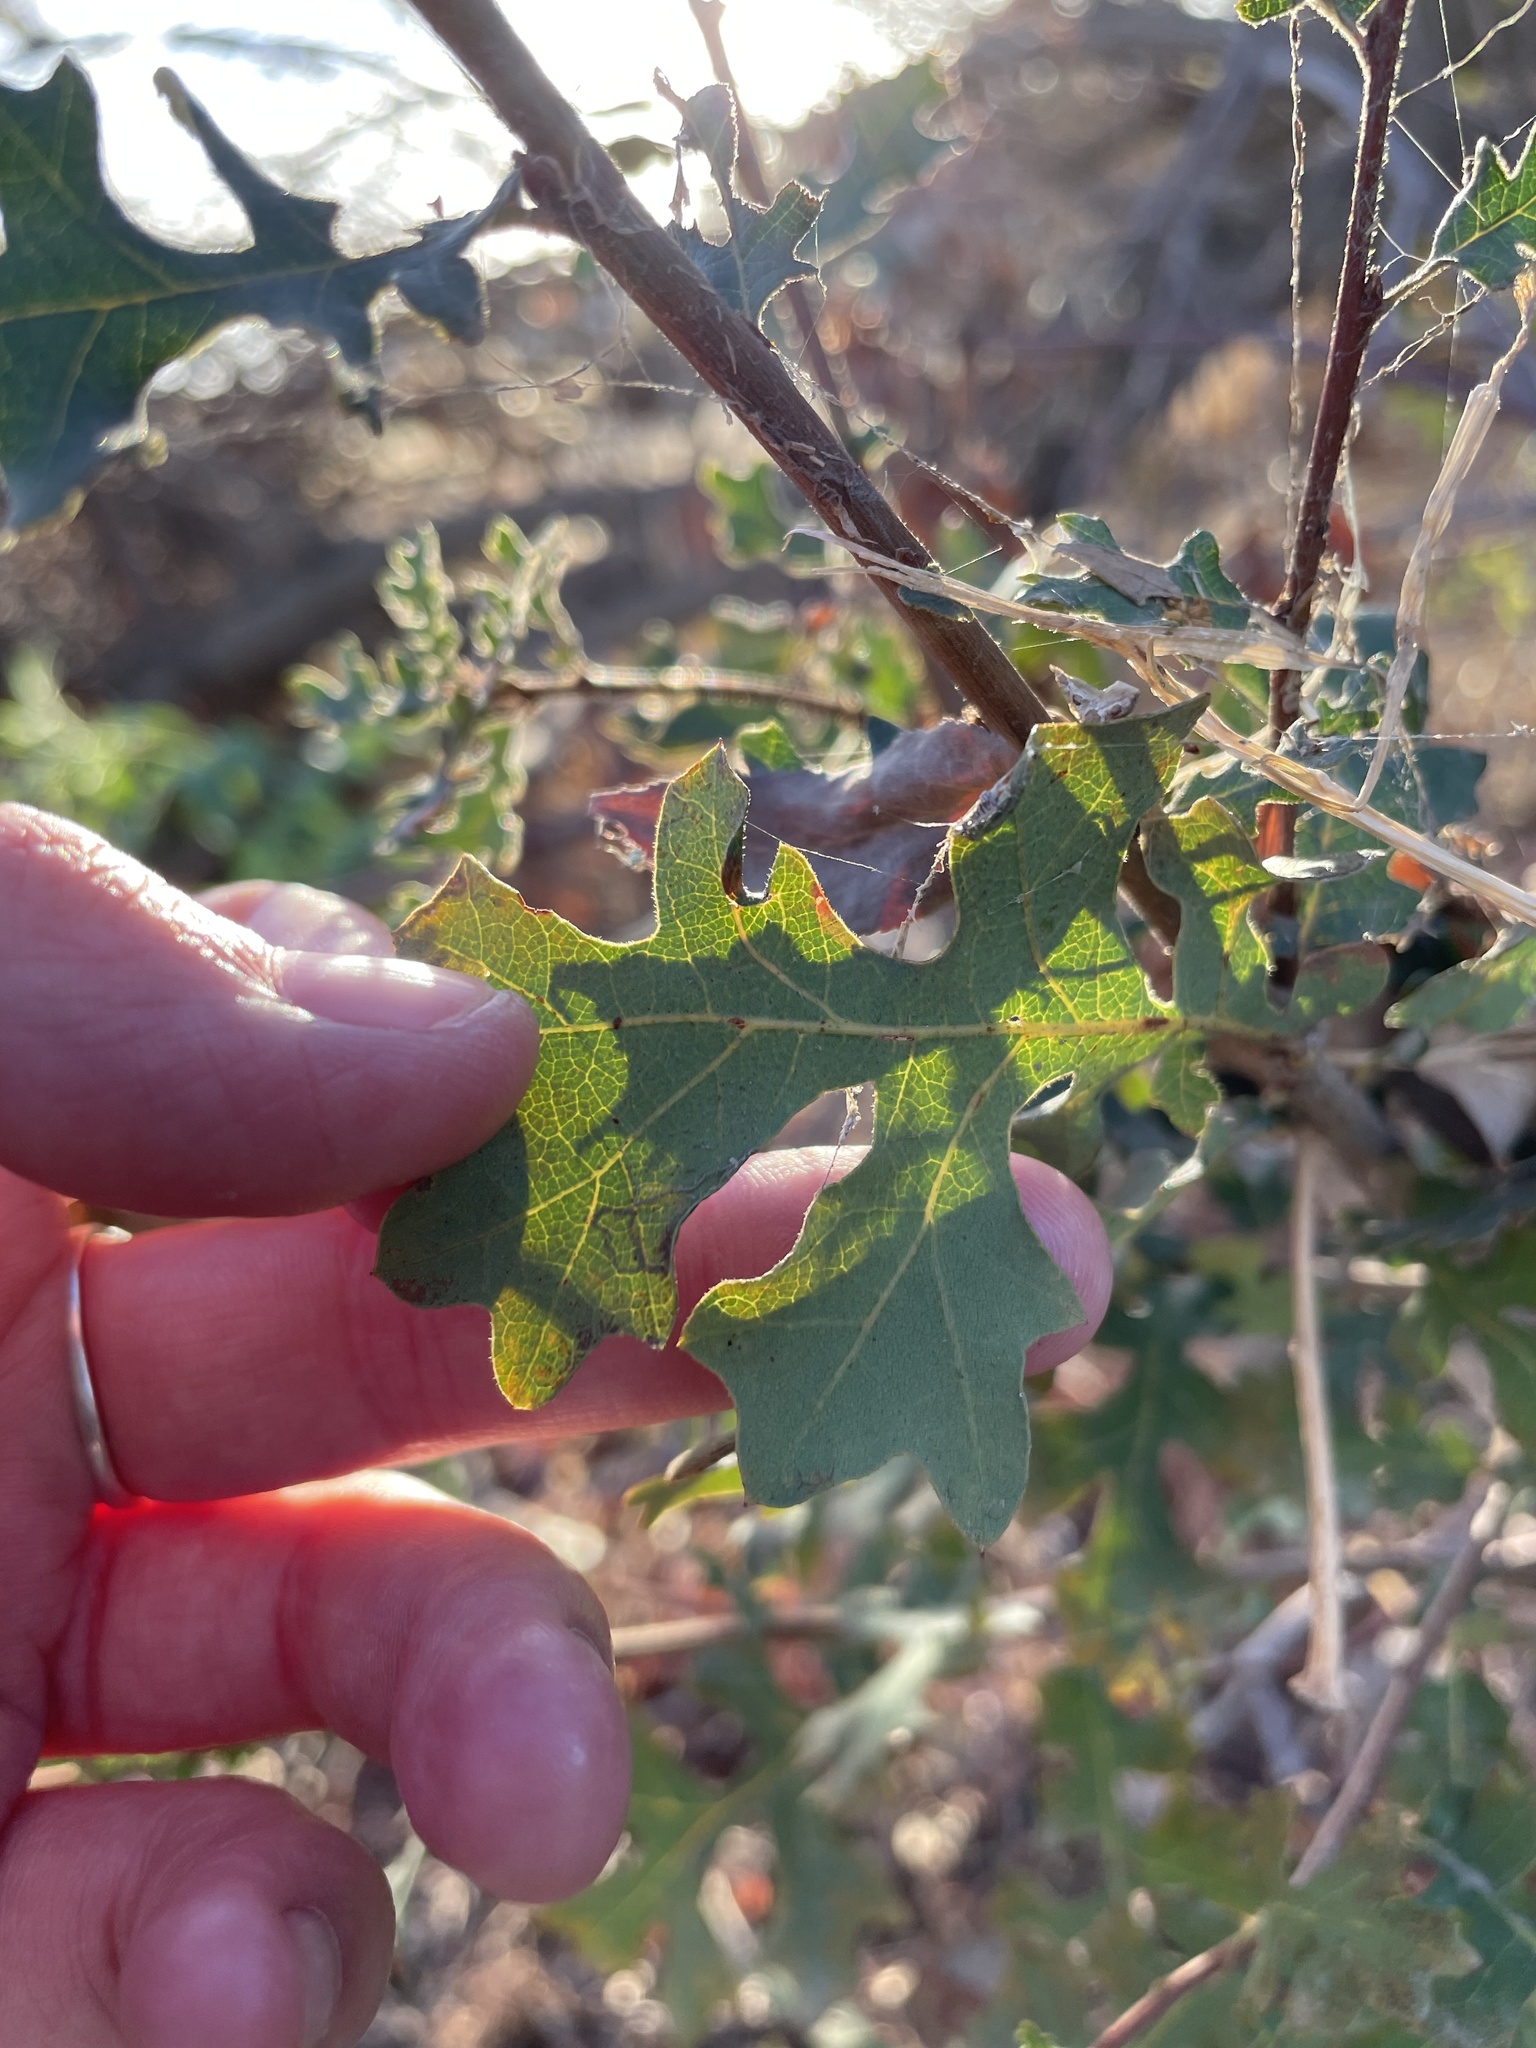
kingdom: Plantae
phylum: Tracheophyta
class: Magnoliopsida
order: Fagales
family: Fagaceae
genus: Quercus
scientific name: Quercus lobata
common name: Valley oak
